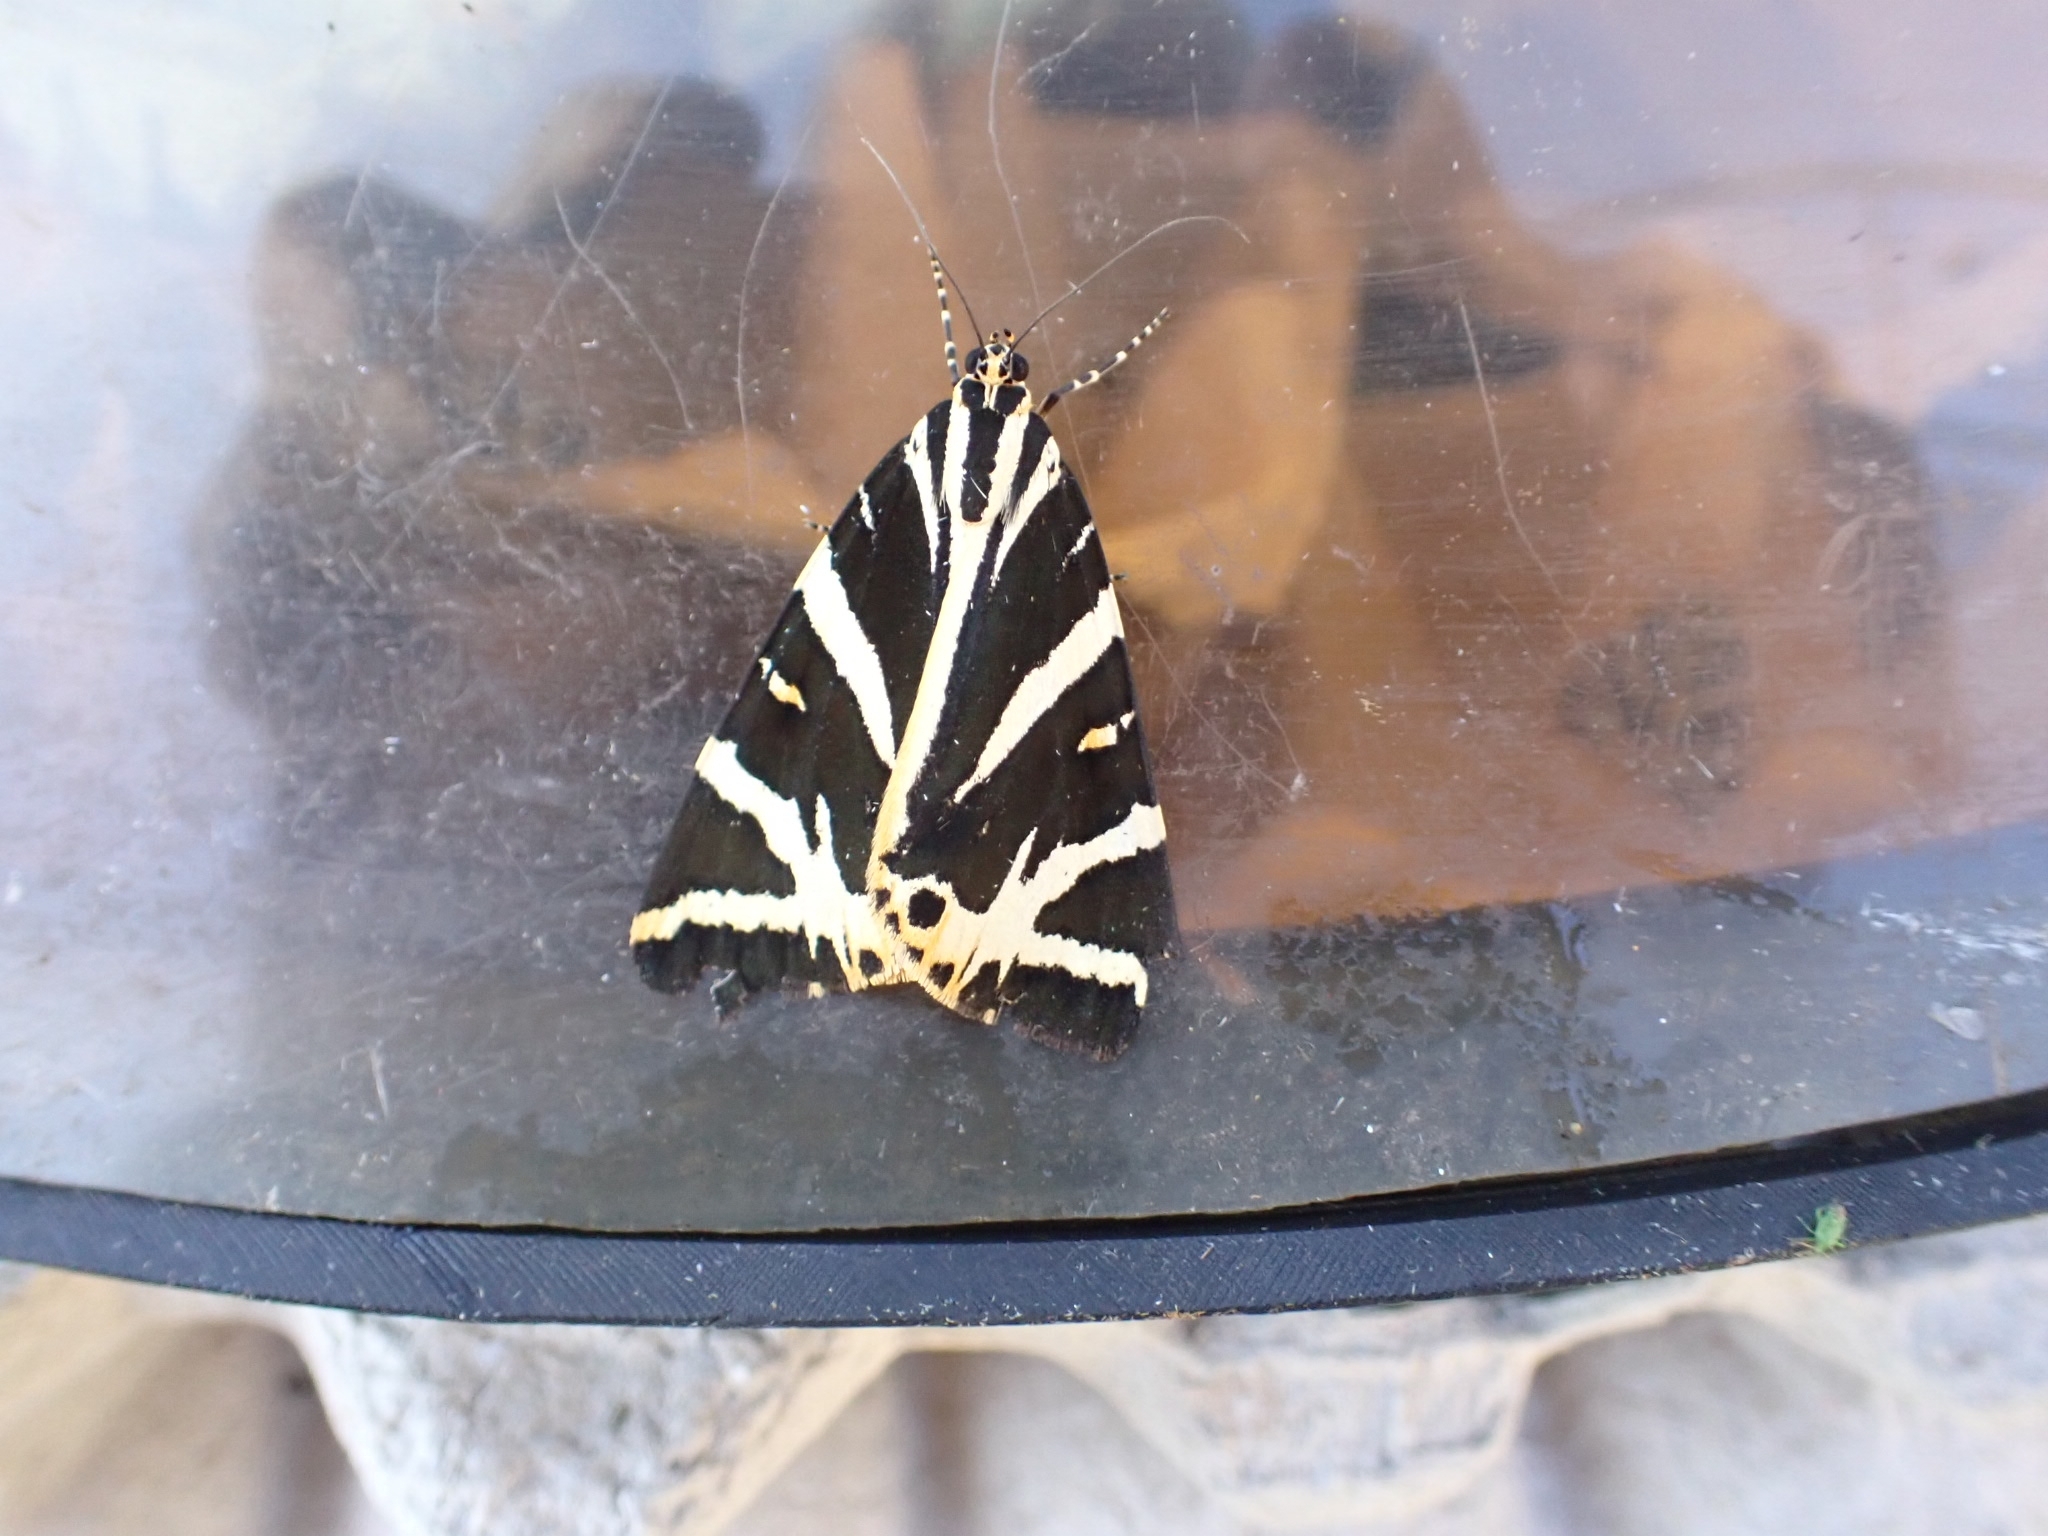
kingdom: Animalia
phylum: Arthropoda
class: Insecta
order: Lepidoptera
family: Erebidae
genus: Euplagia
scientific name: Euplagia quadripunctaria
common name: Jersey tiger
